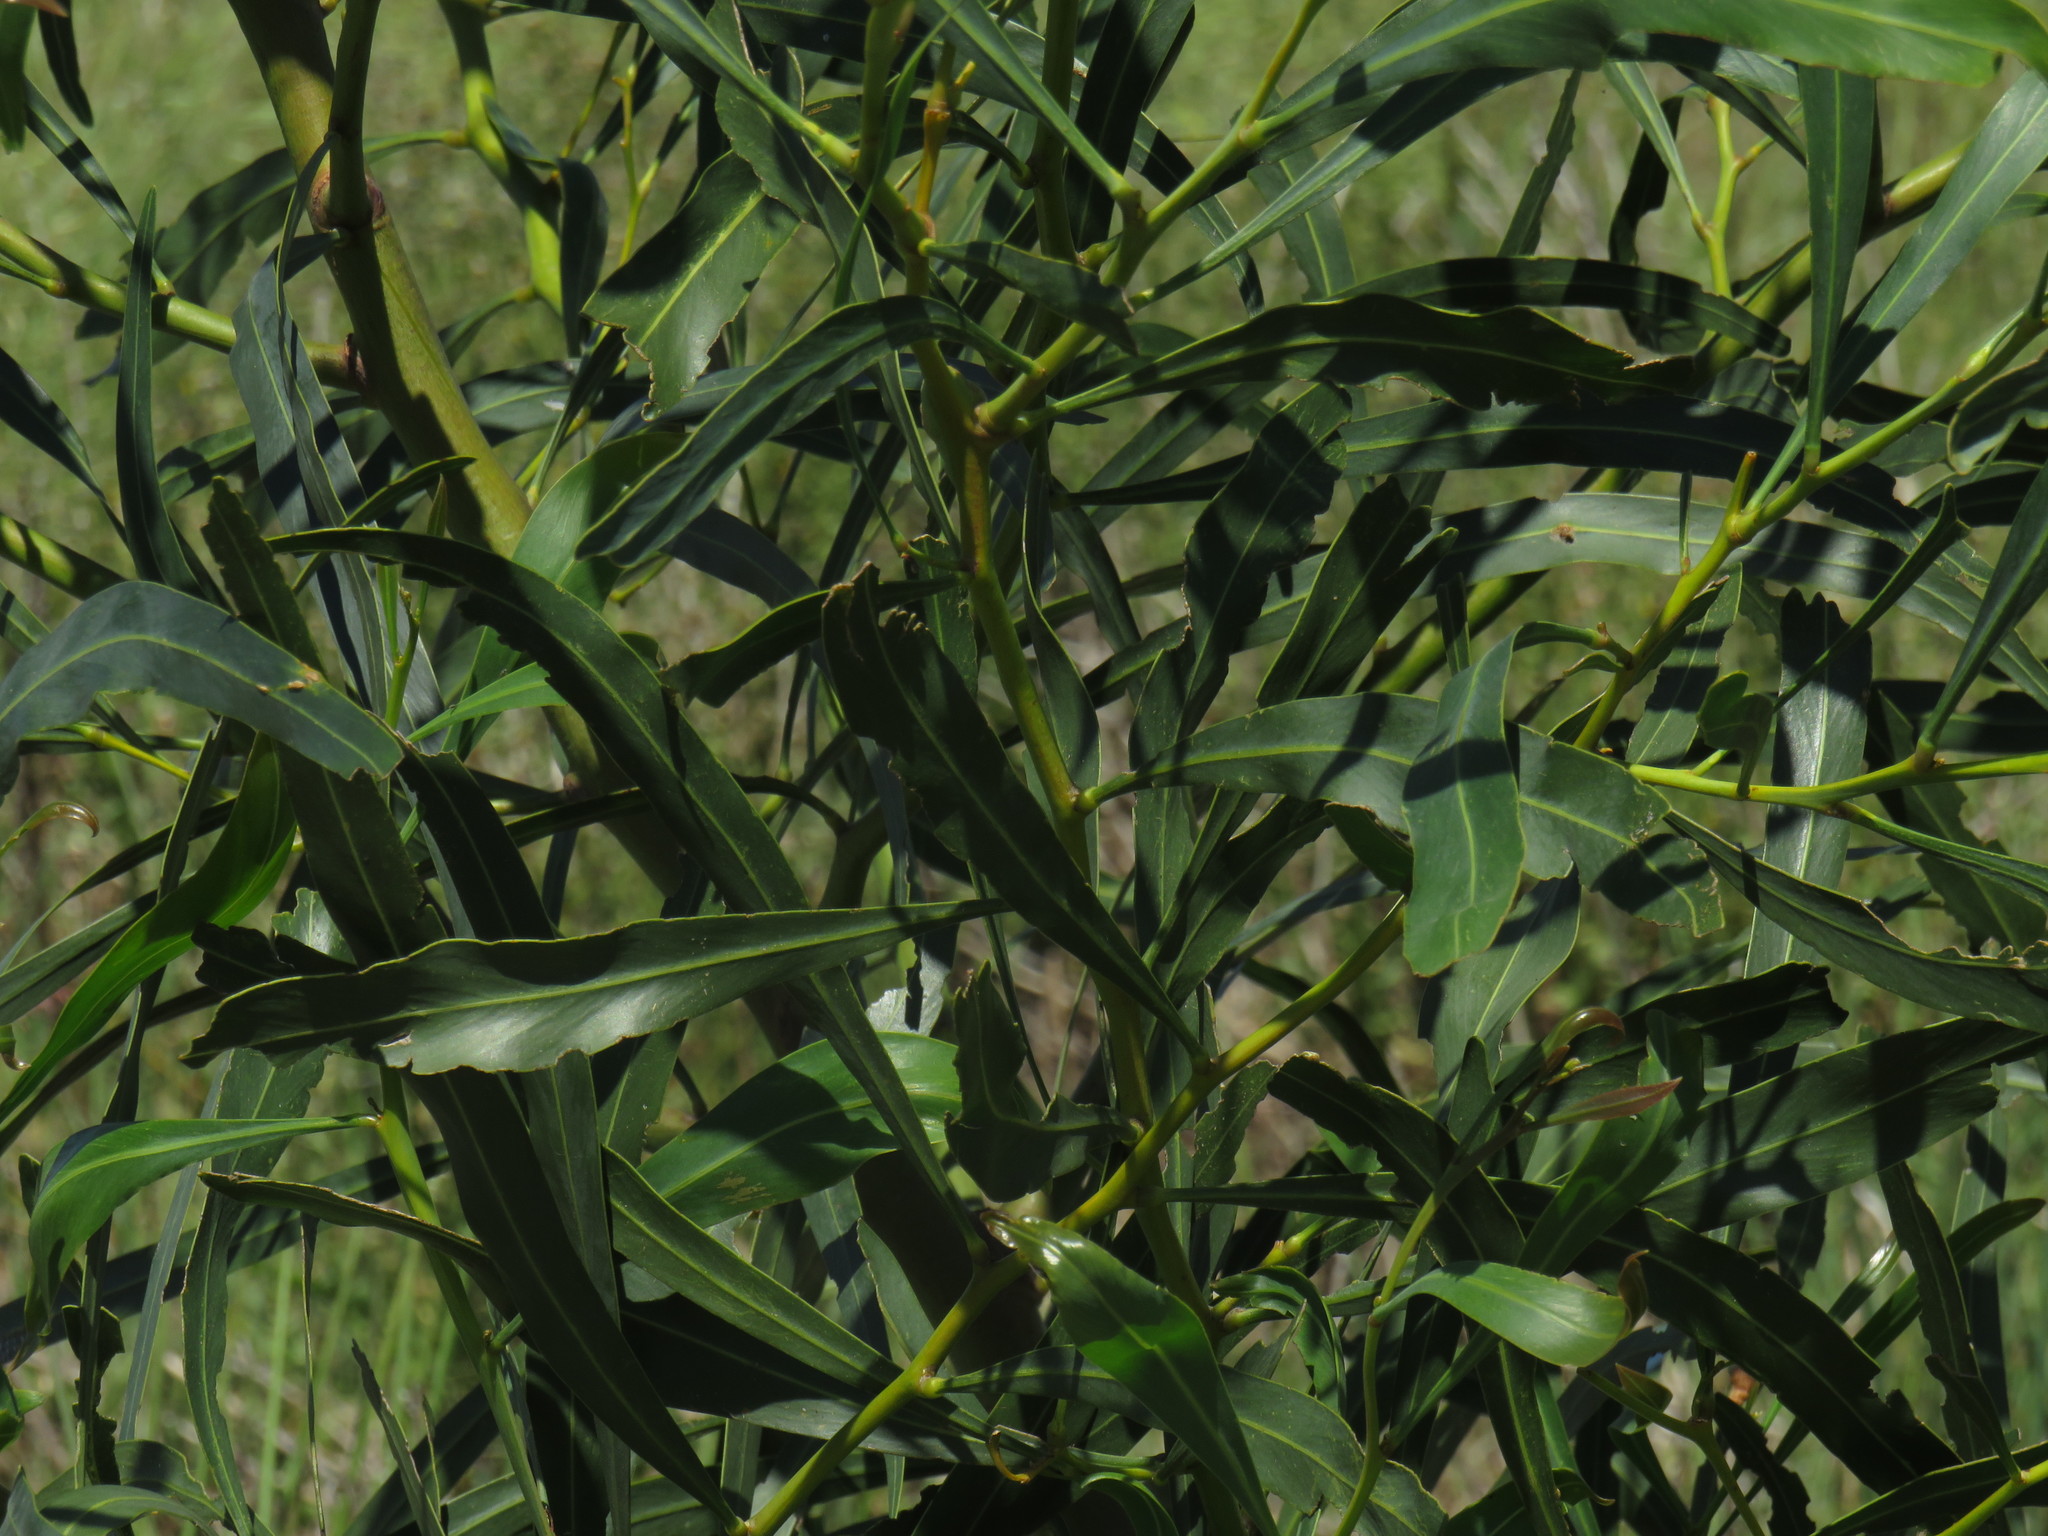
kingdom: Plantae
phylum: Tracheophyta
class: Magnoliopsida
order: Fabales
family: Fabaceae
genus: Acacia
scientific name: Acacia saligna
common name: Orange wattle
